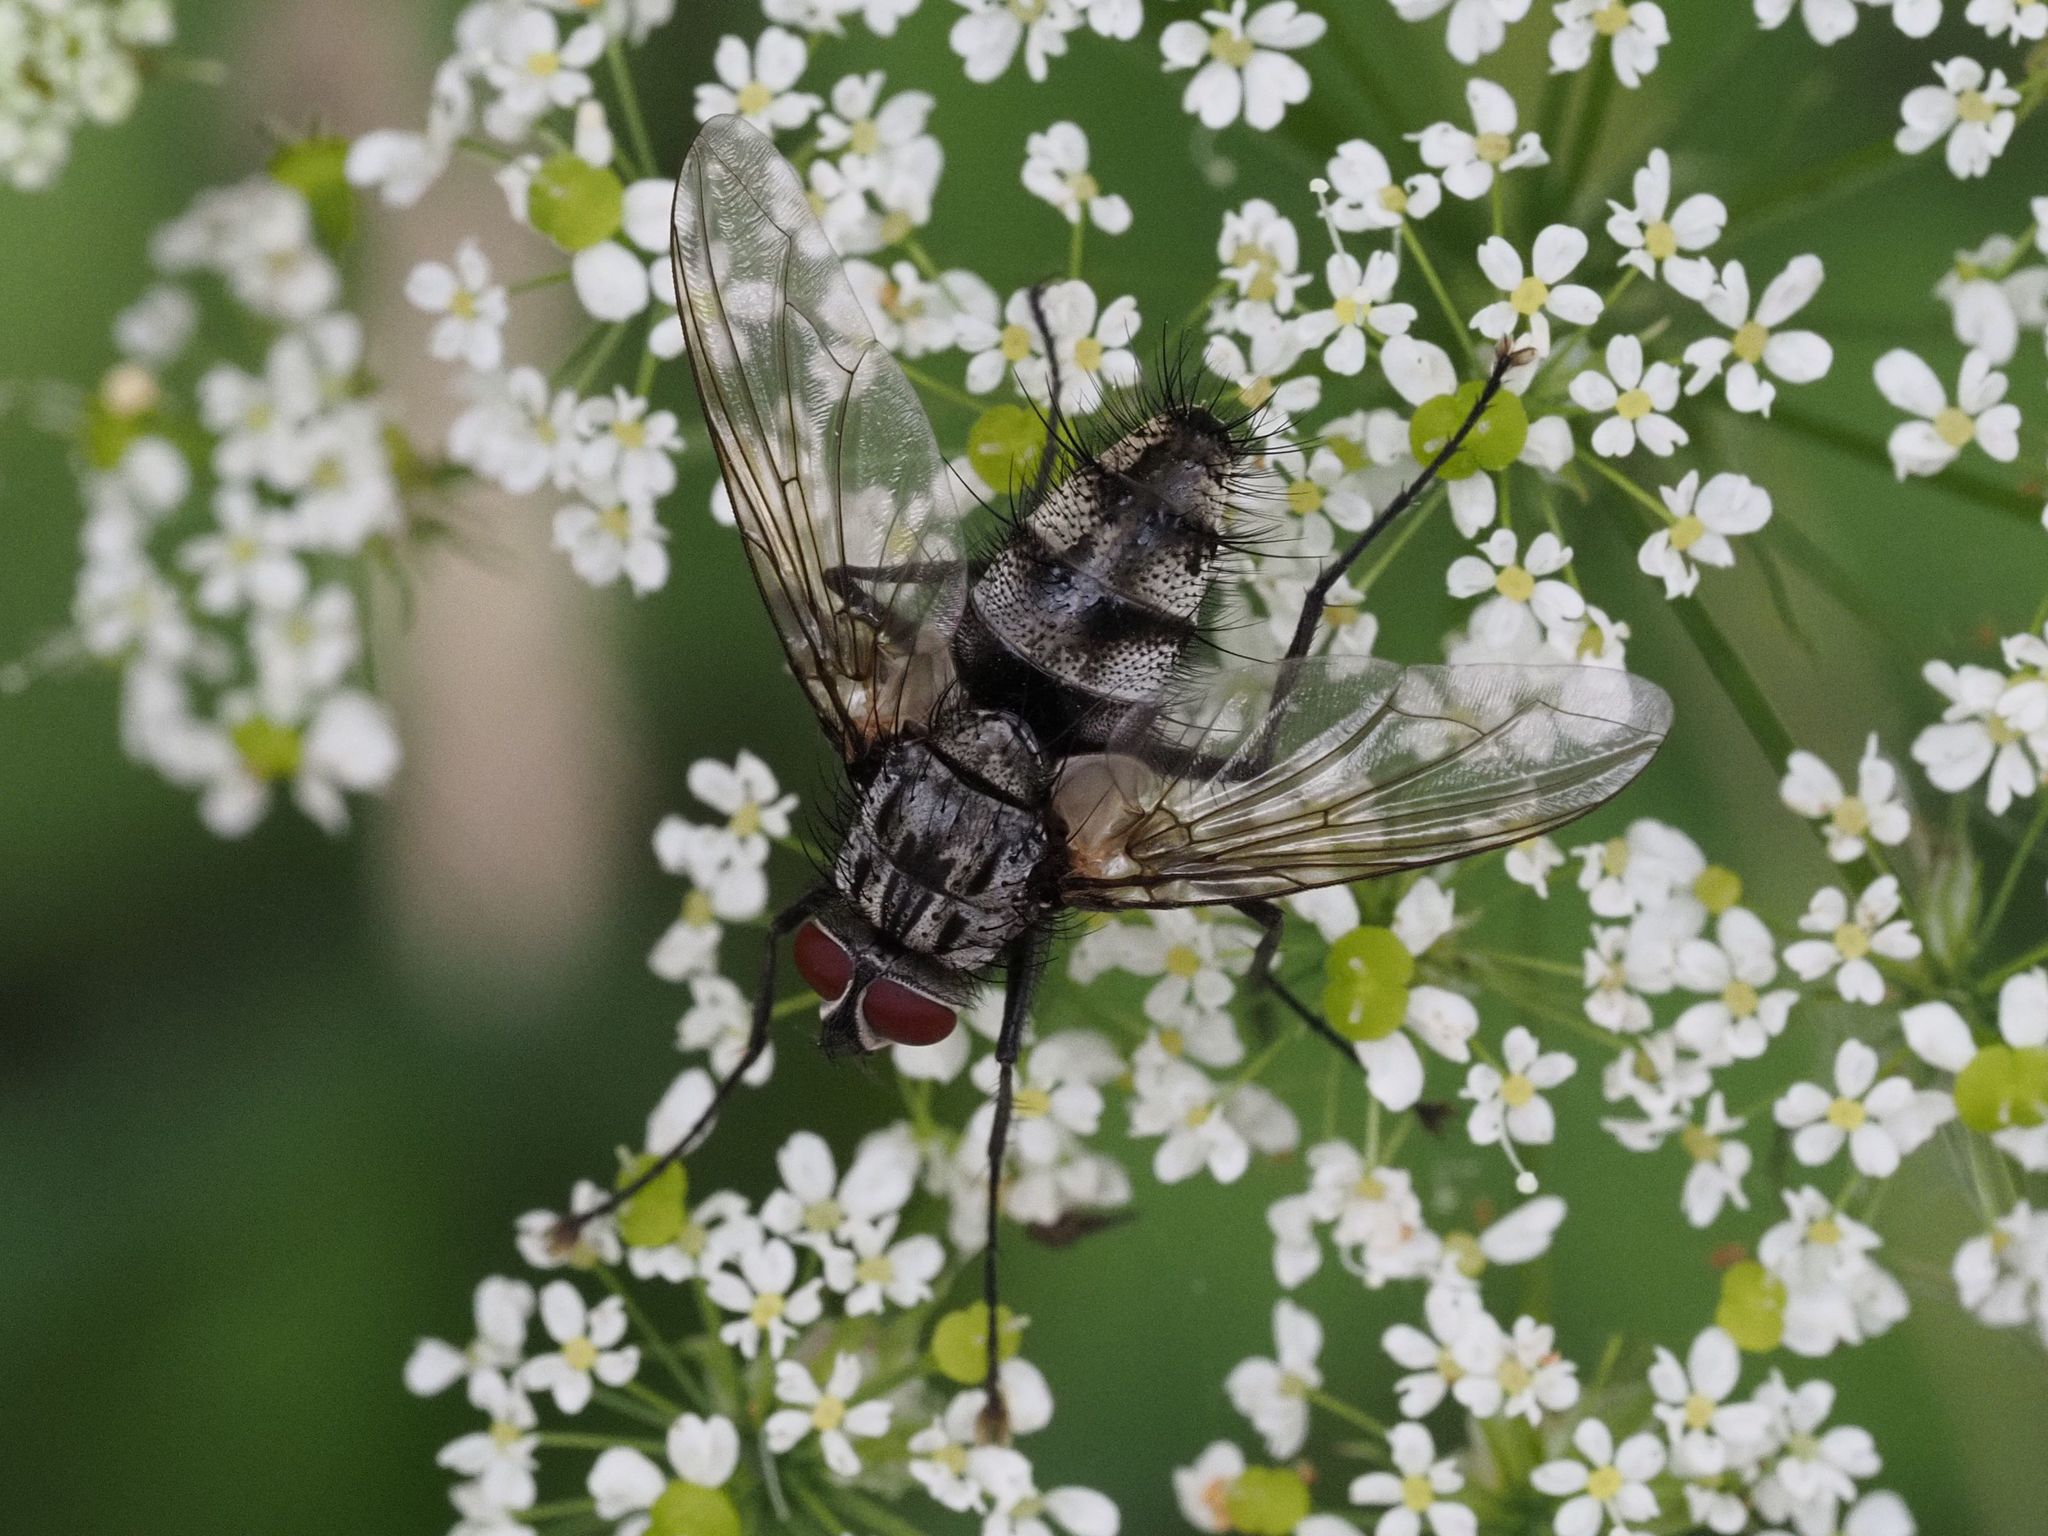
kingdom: Animalia
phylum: Arthropoda
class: Insecta
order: Diptera
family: Tachinidae
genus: Dinera
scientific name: Dinera ferina
